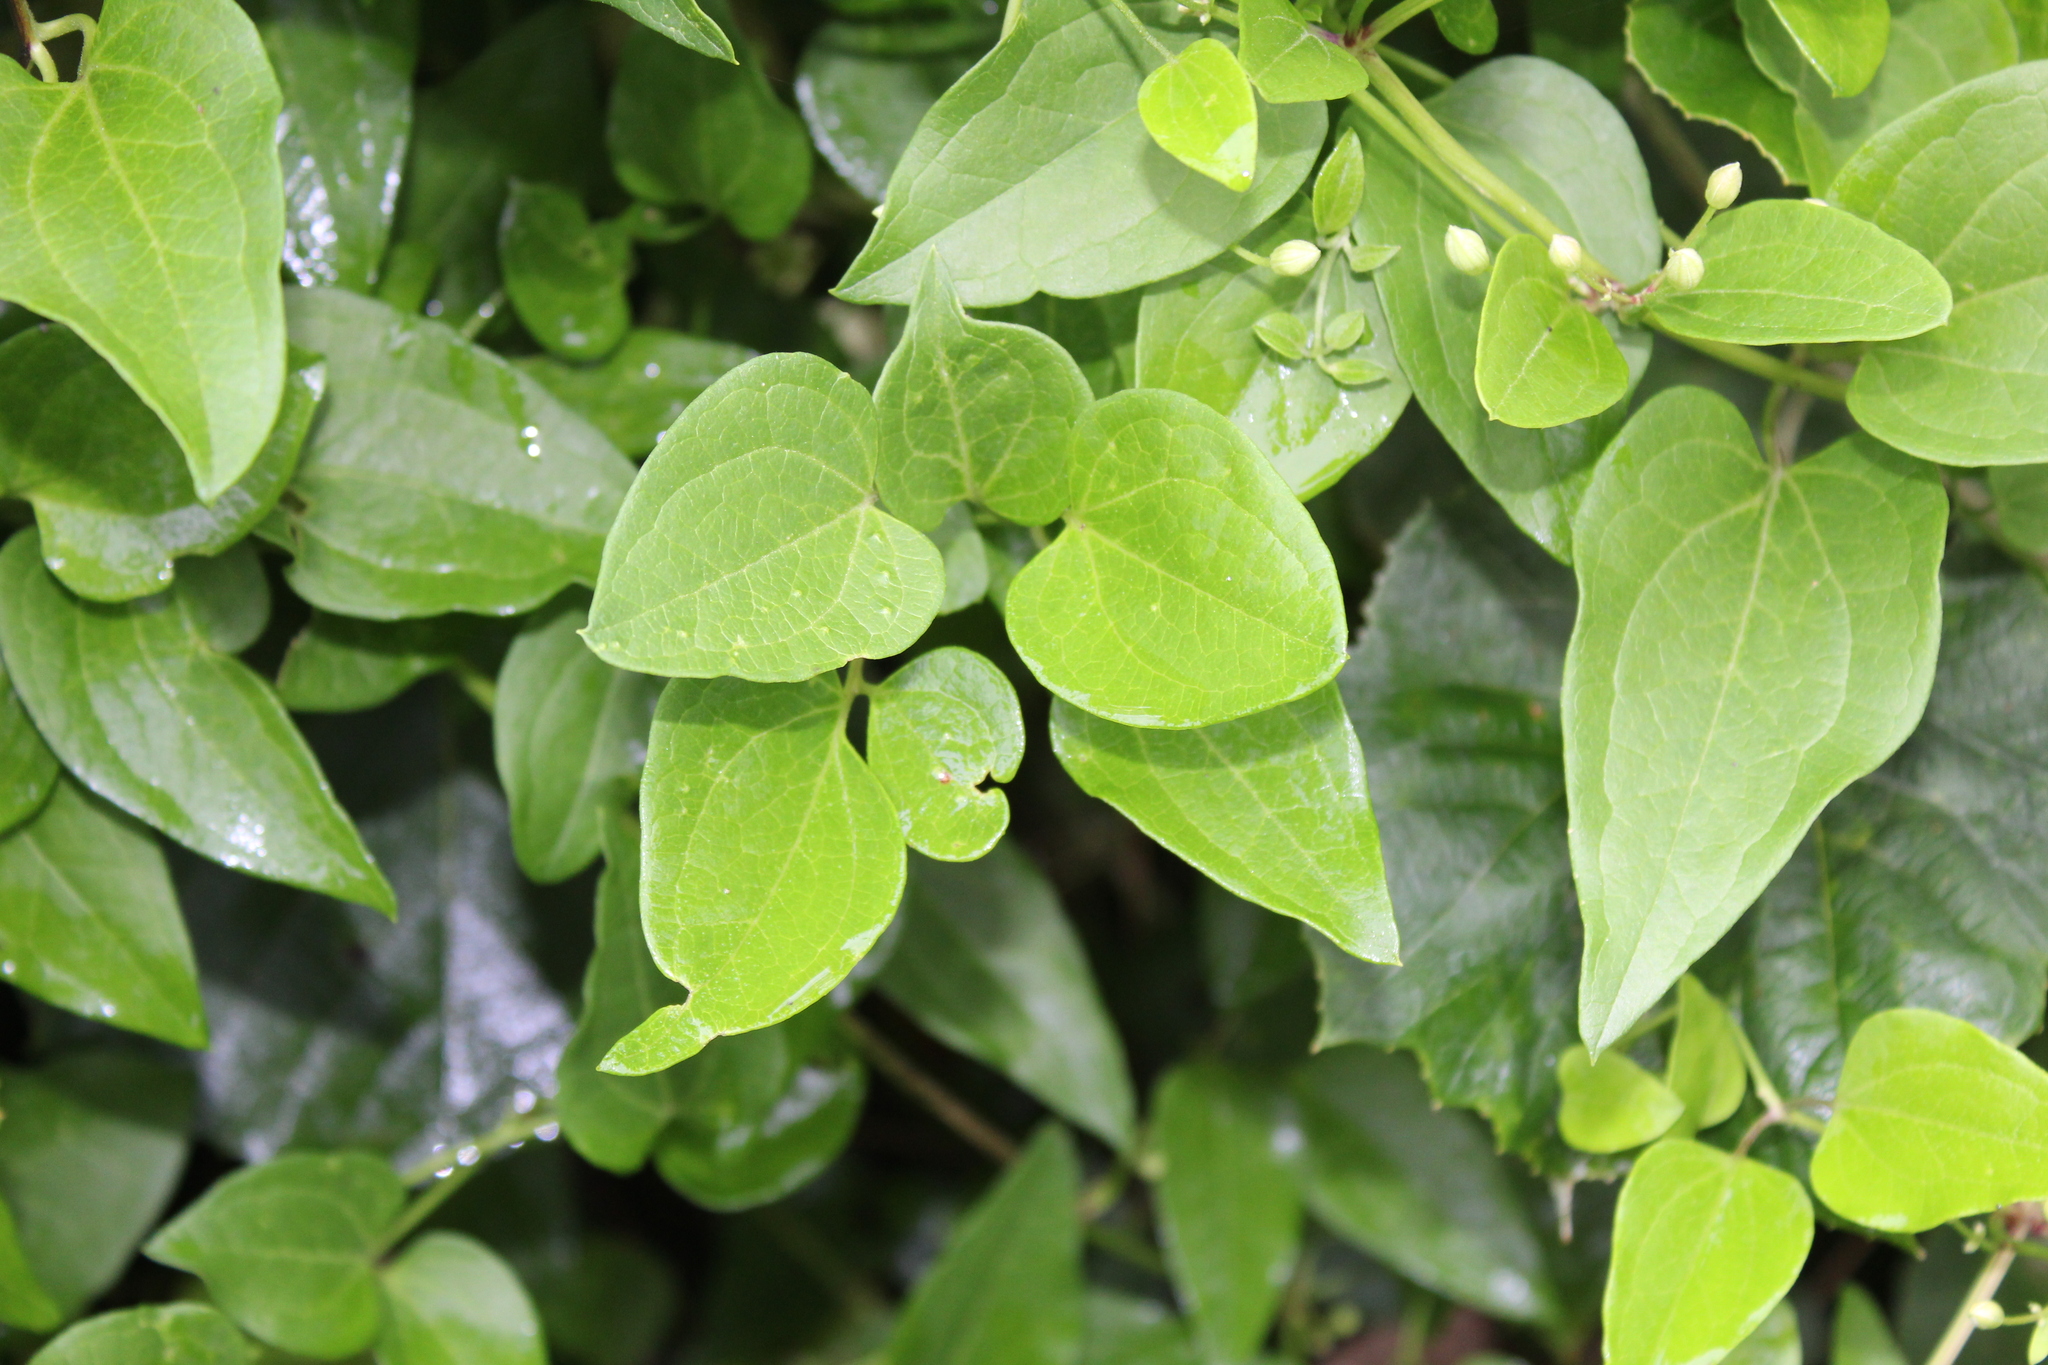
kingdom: Plantae
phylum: Tracheophyta
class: Magnoliopsida
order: Ranunculales
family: Ranunculaceae
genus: Clematis
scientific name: Clematis terniflora
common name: Sweet autumn clematis
